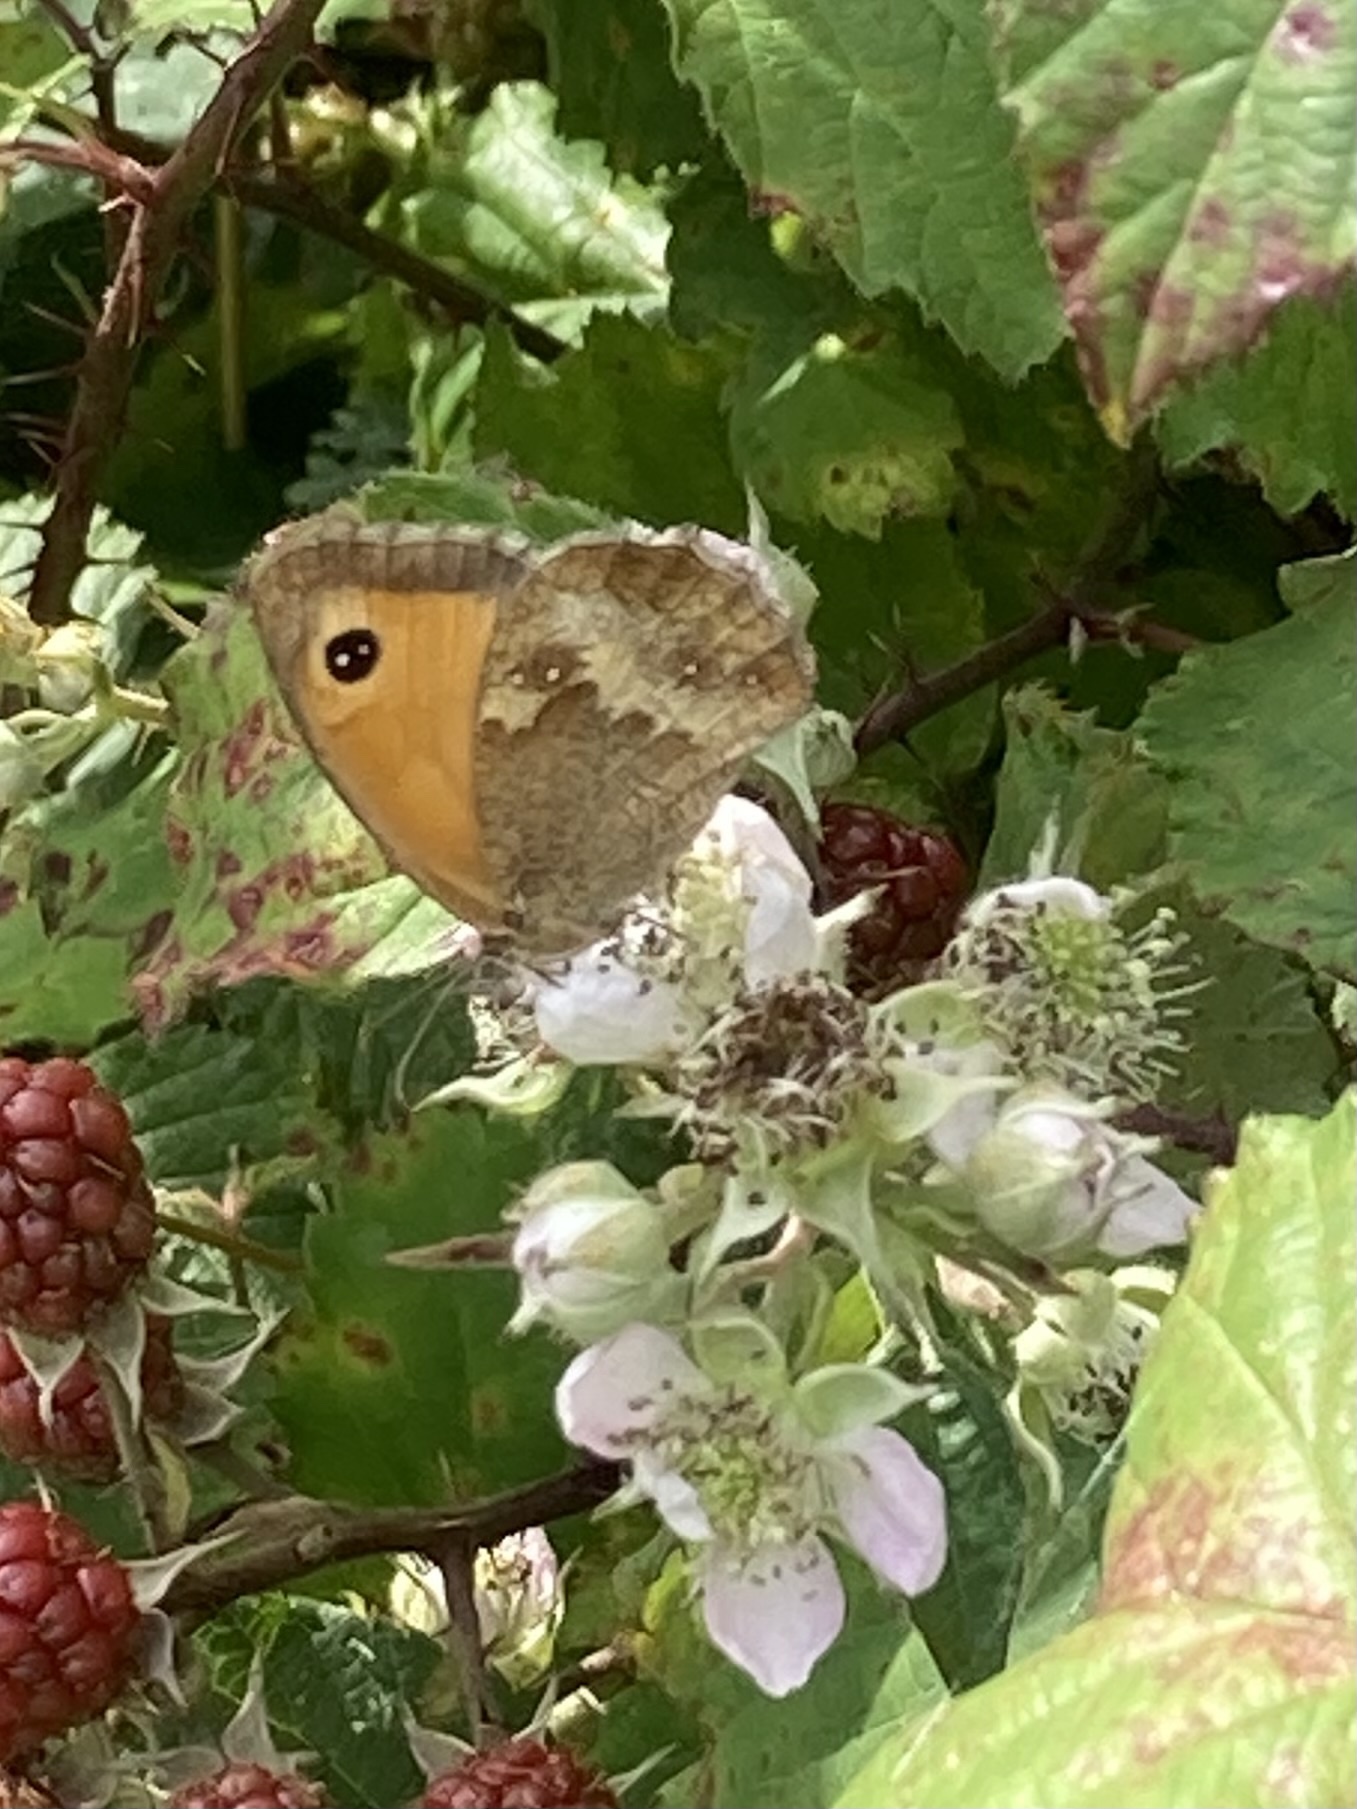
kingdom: Animalia
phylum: Arthropoda
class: Insecta
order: Lepidoptera
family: Nymphalidae
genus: Pyronia
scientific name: Pyronia tithonus
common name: Gatekeeper
